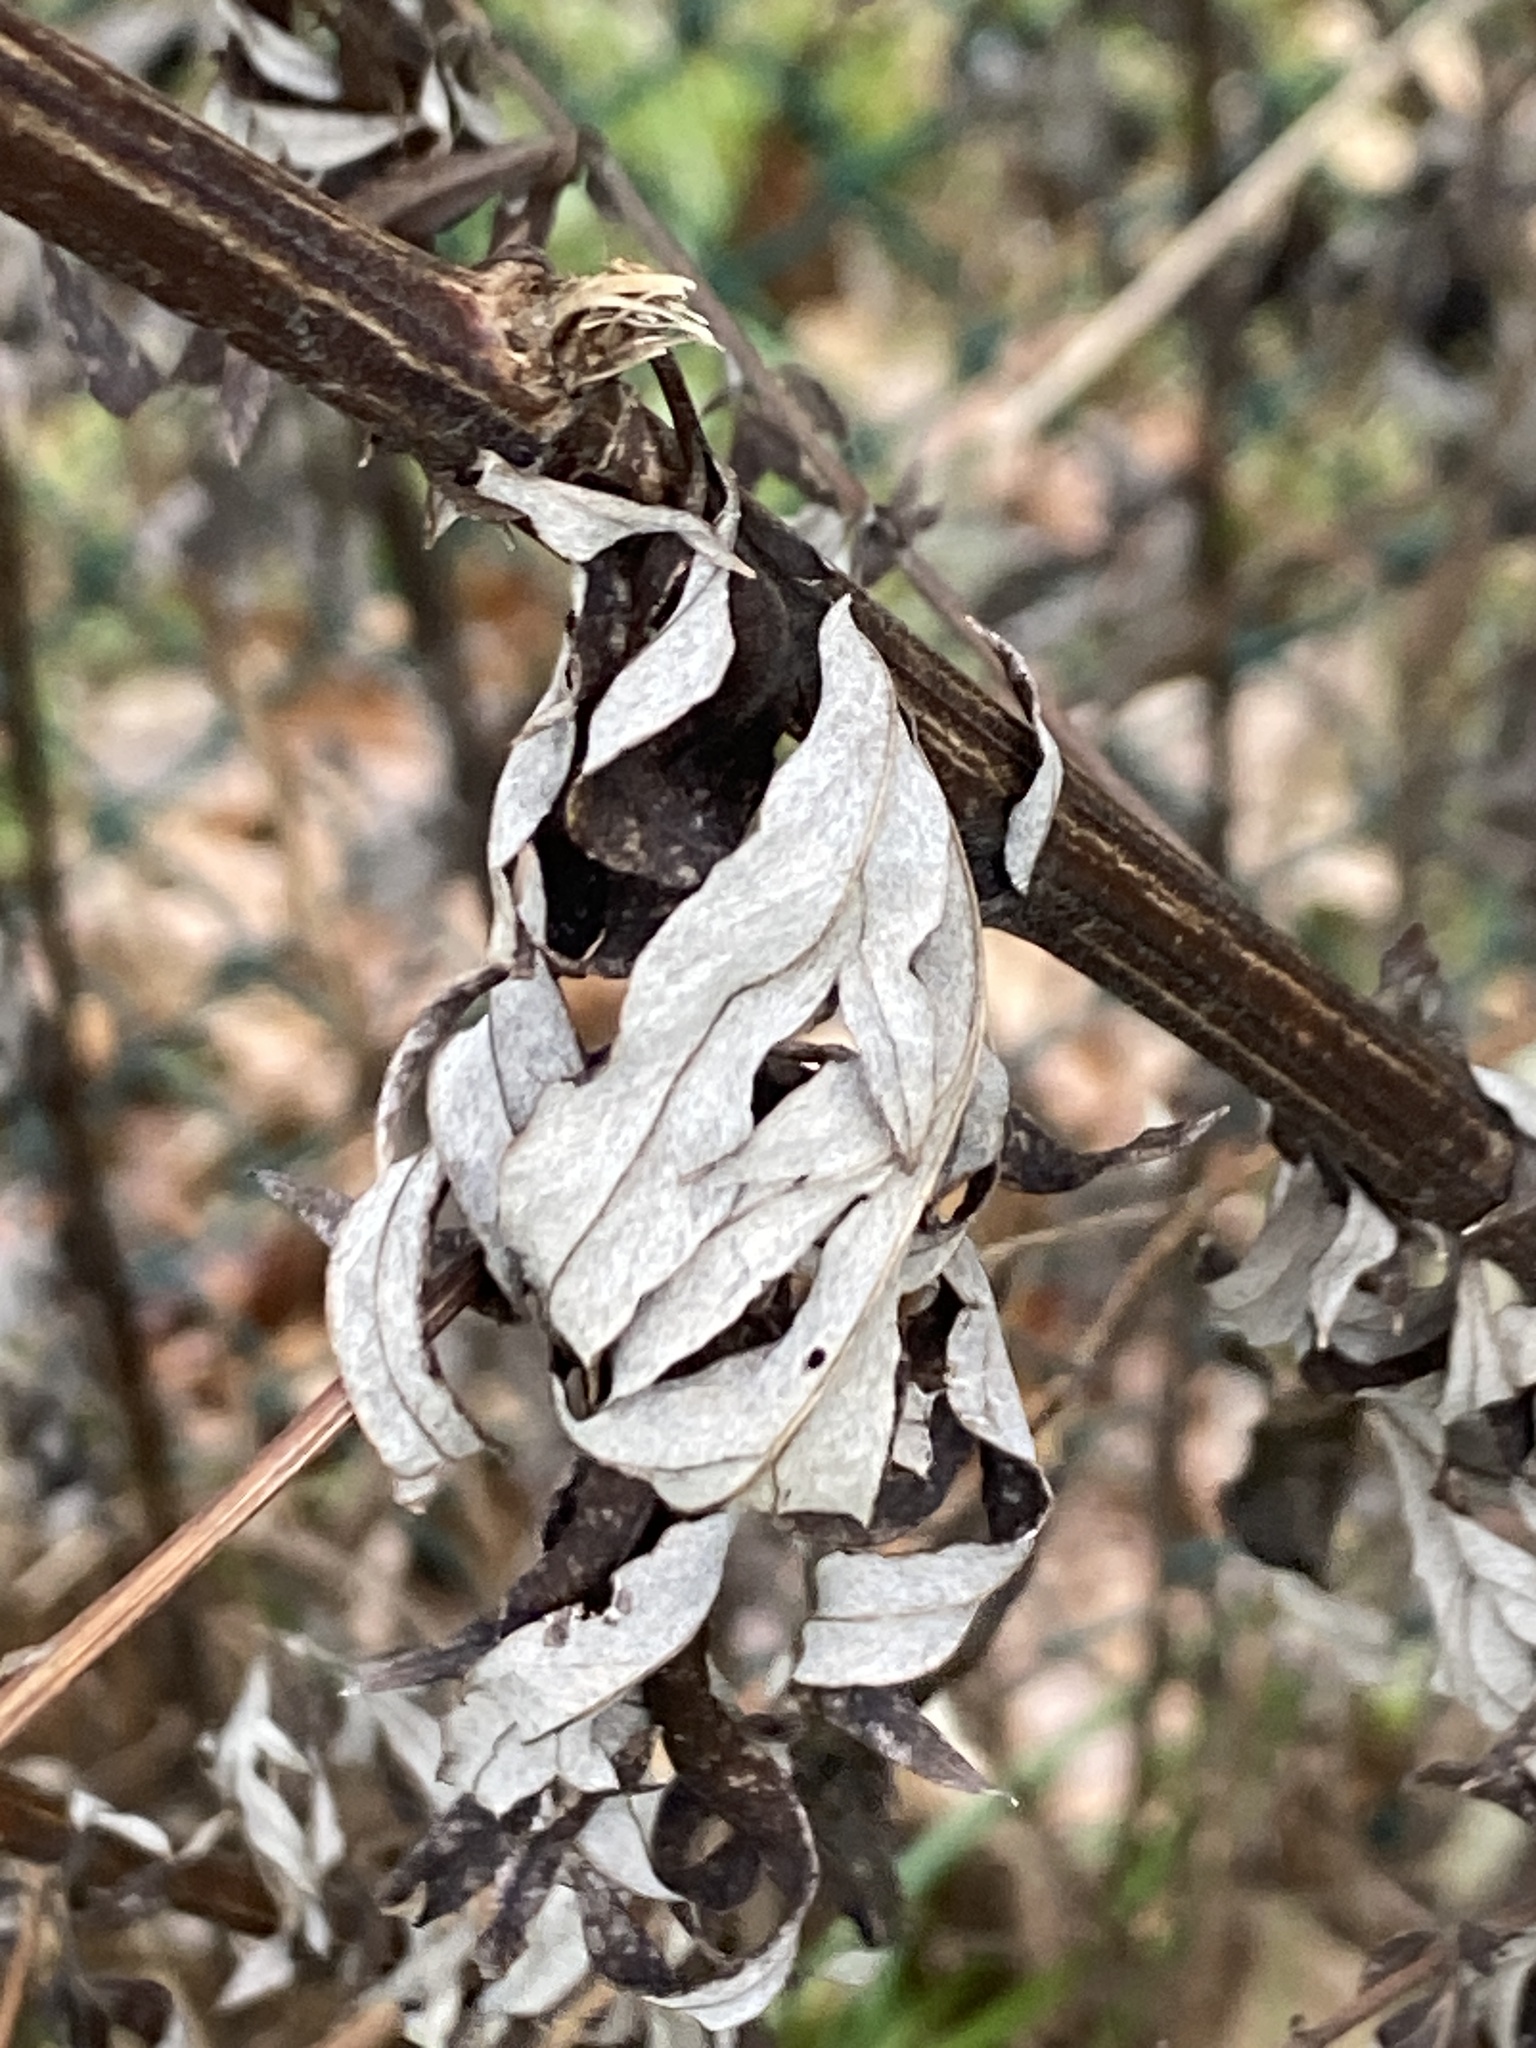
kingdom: Plantae
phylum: Tracheophyta
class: Magnoliopsida
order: Asterales
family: Asteraceae
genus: Artemisia
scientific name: Artemisia vulgaris
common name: Mugwort
